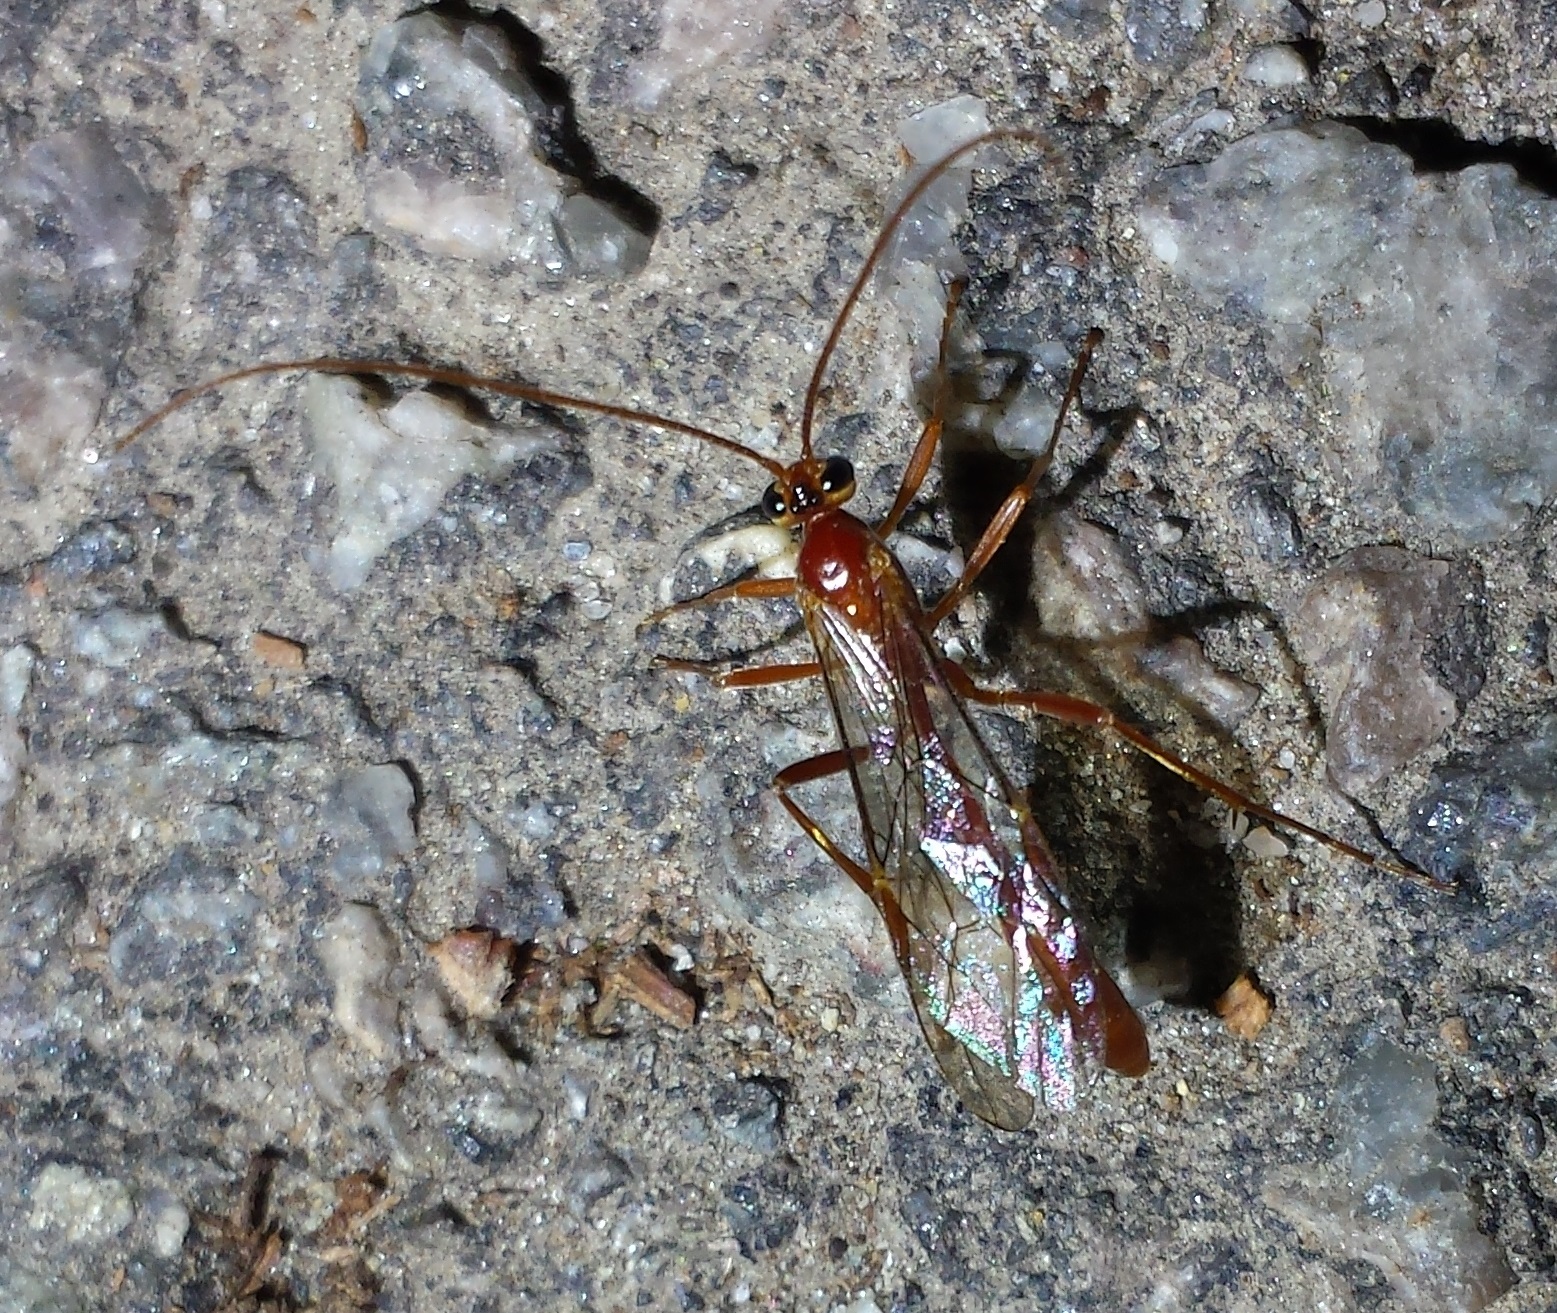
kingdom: Animalia
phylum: Arthropoda
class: Insecta
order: Hymenoptera
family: Ichneumonidae
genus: Ophion
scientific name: Ophion
